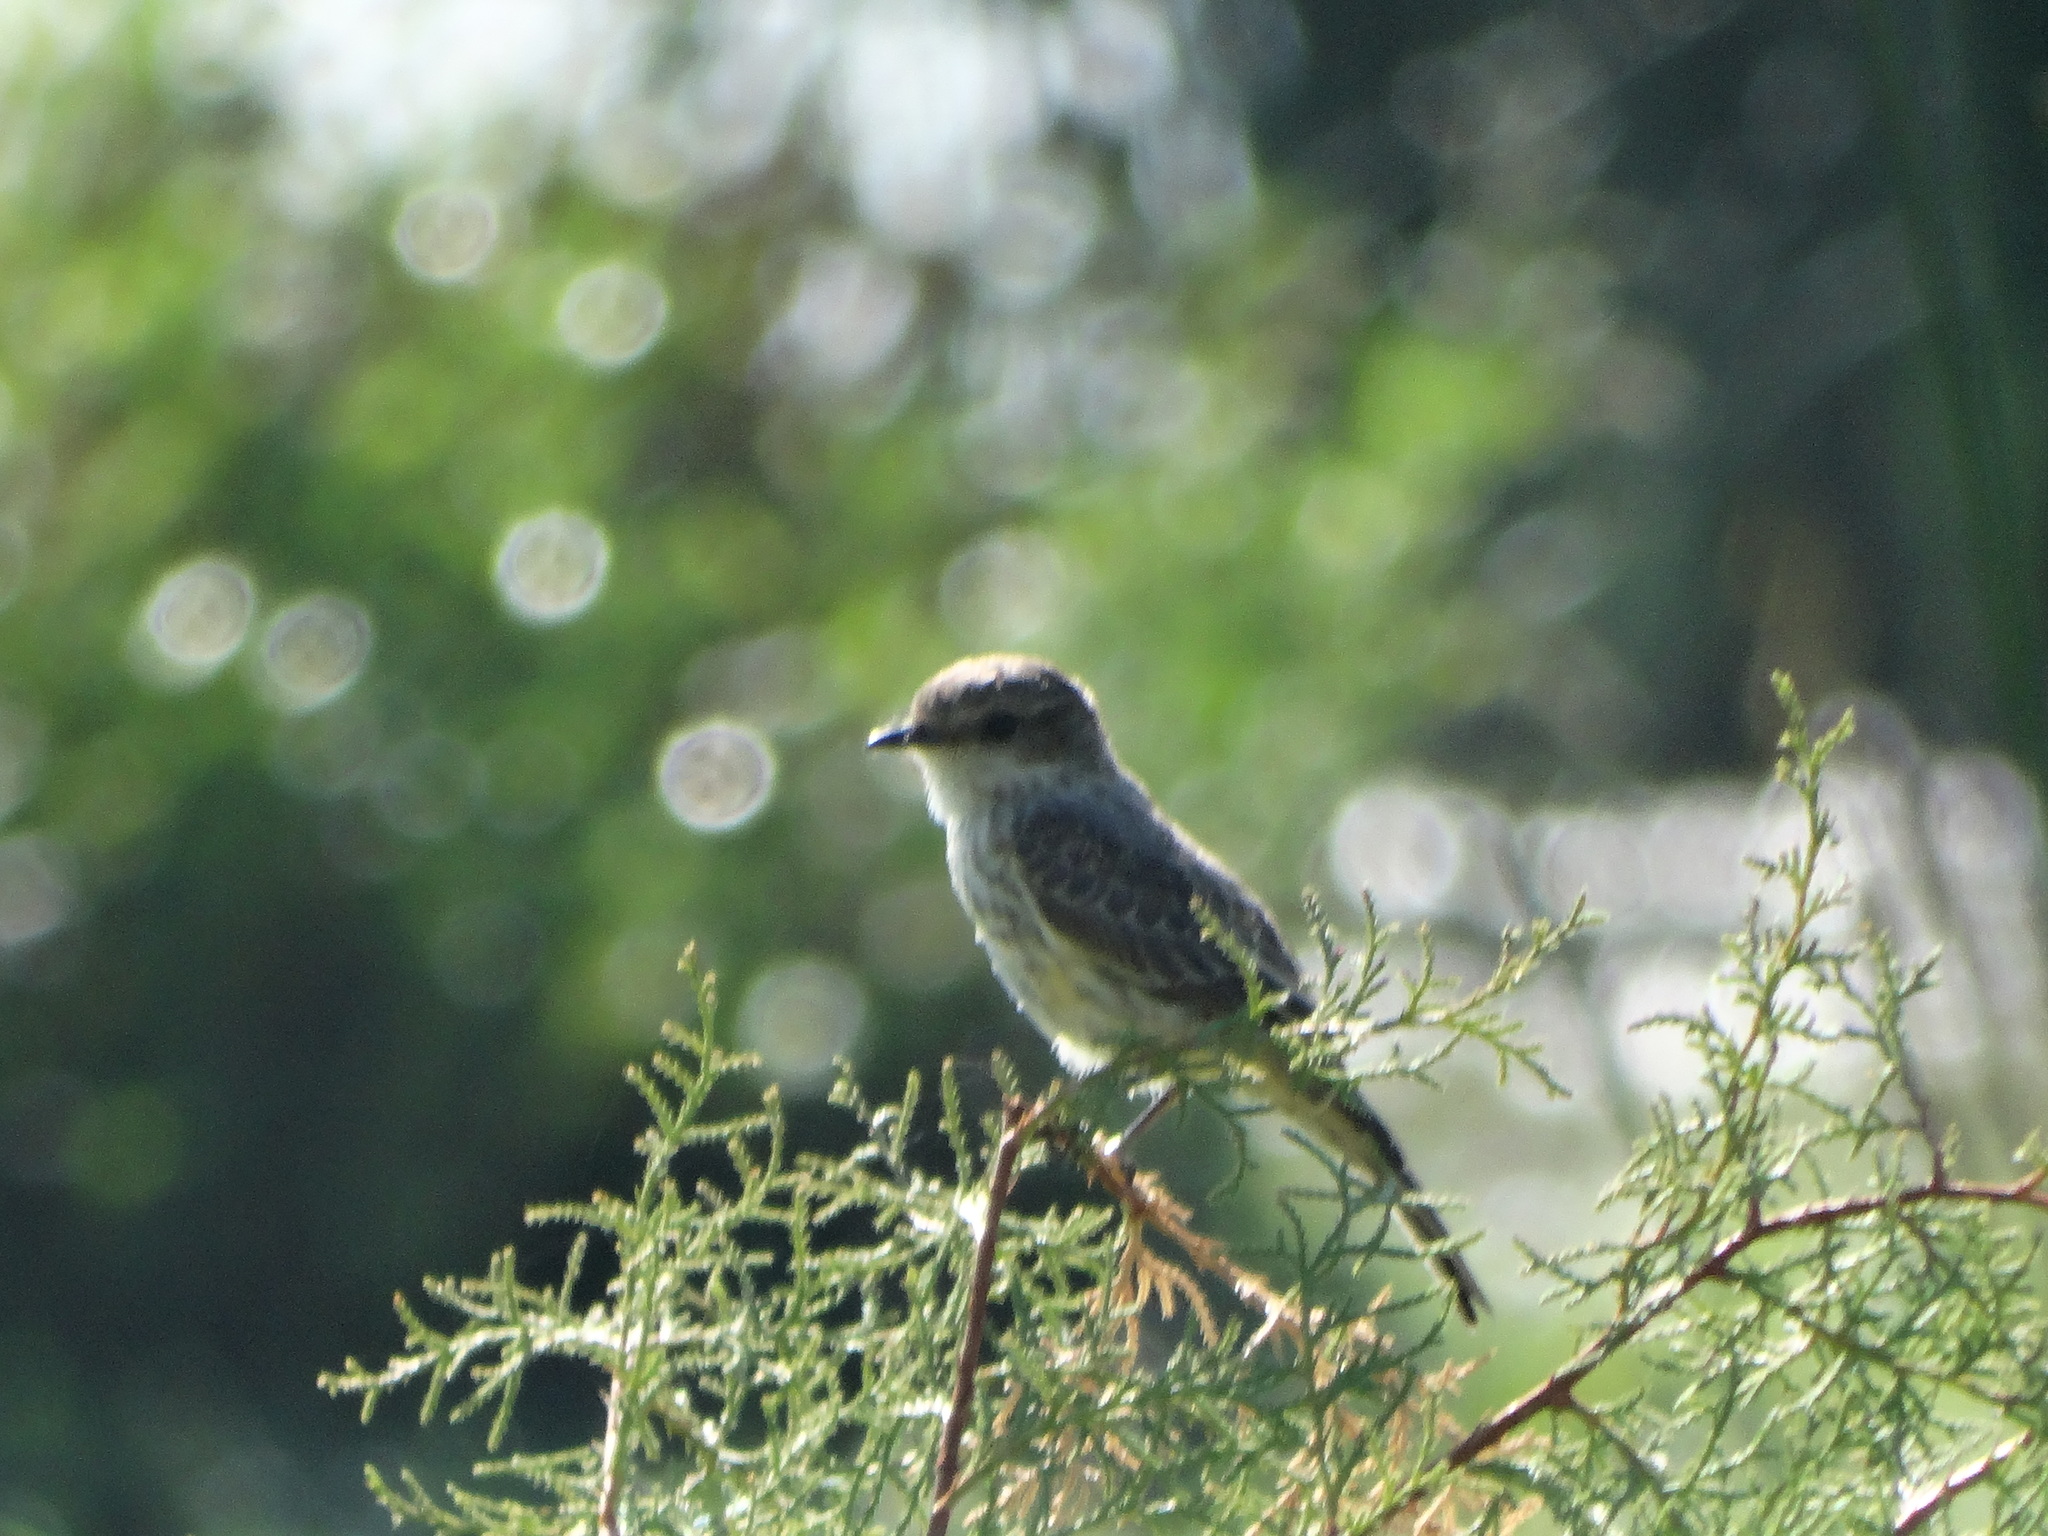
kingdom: Animalia
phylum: Chordata
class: Aves
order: Passeriformes
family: Tyrannidae
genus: Pyrocephalus
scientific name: Pyrocephalus rubinus
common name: Vermilion flycatcher
